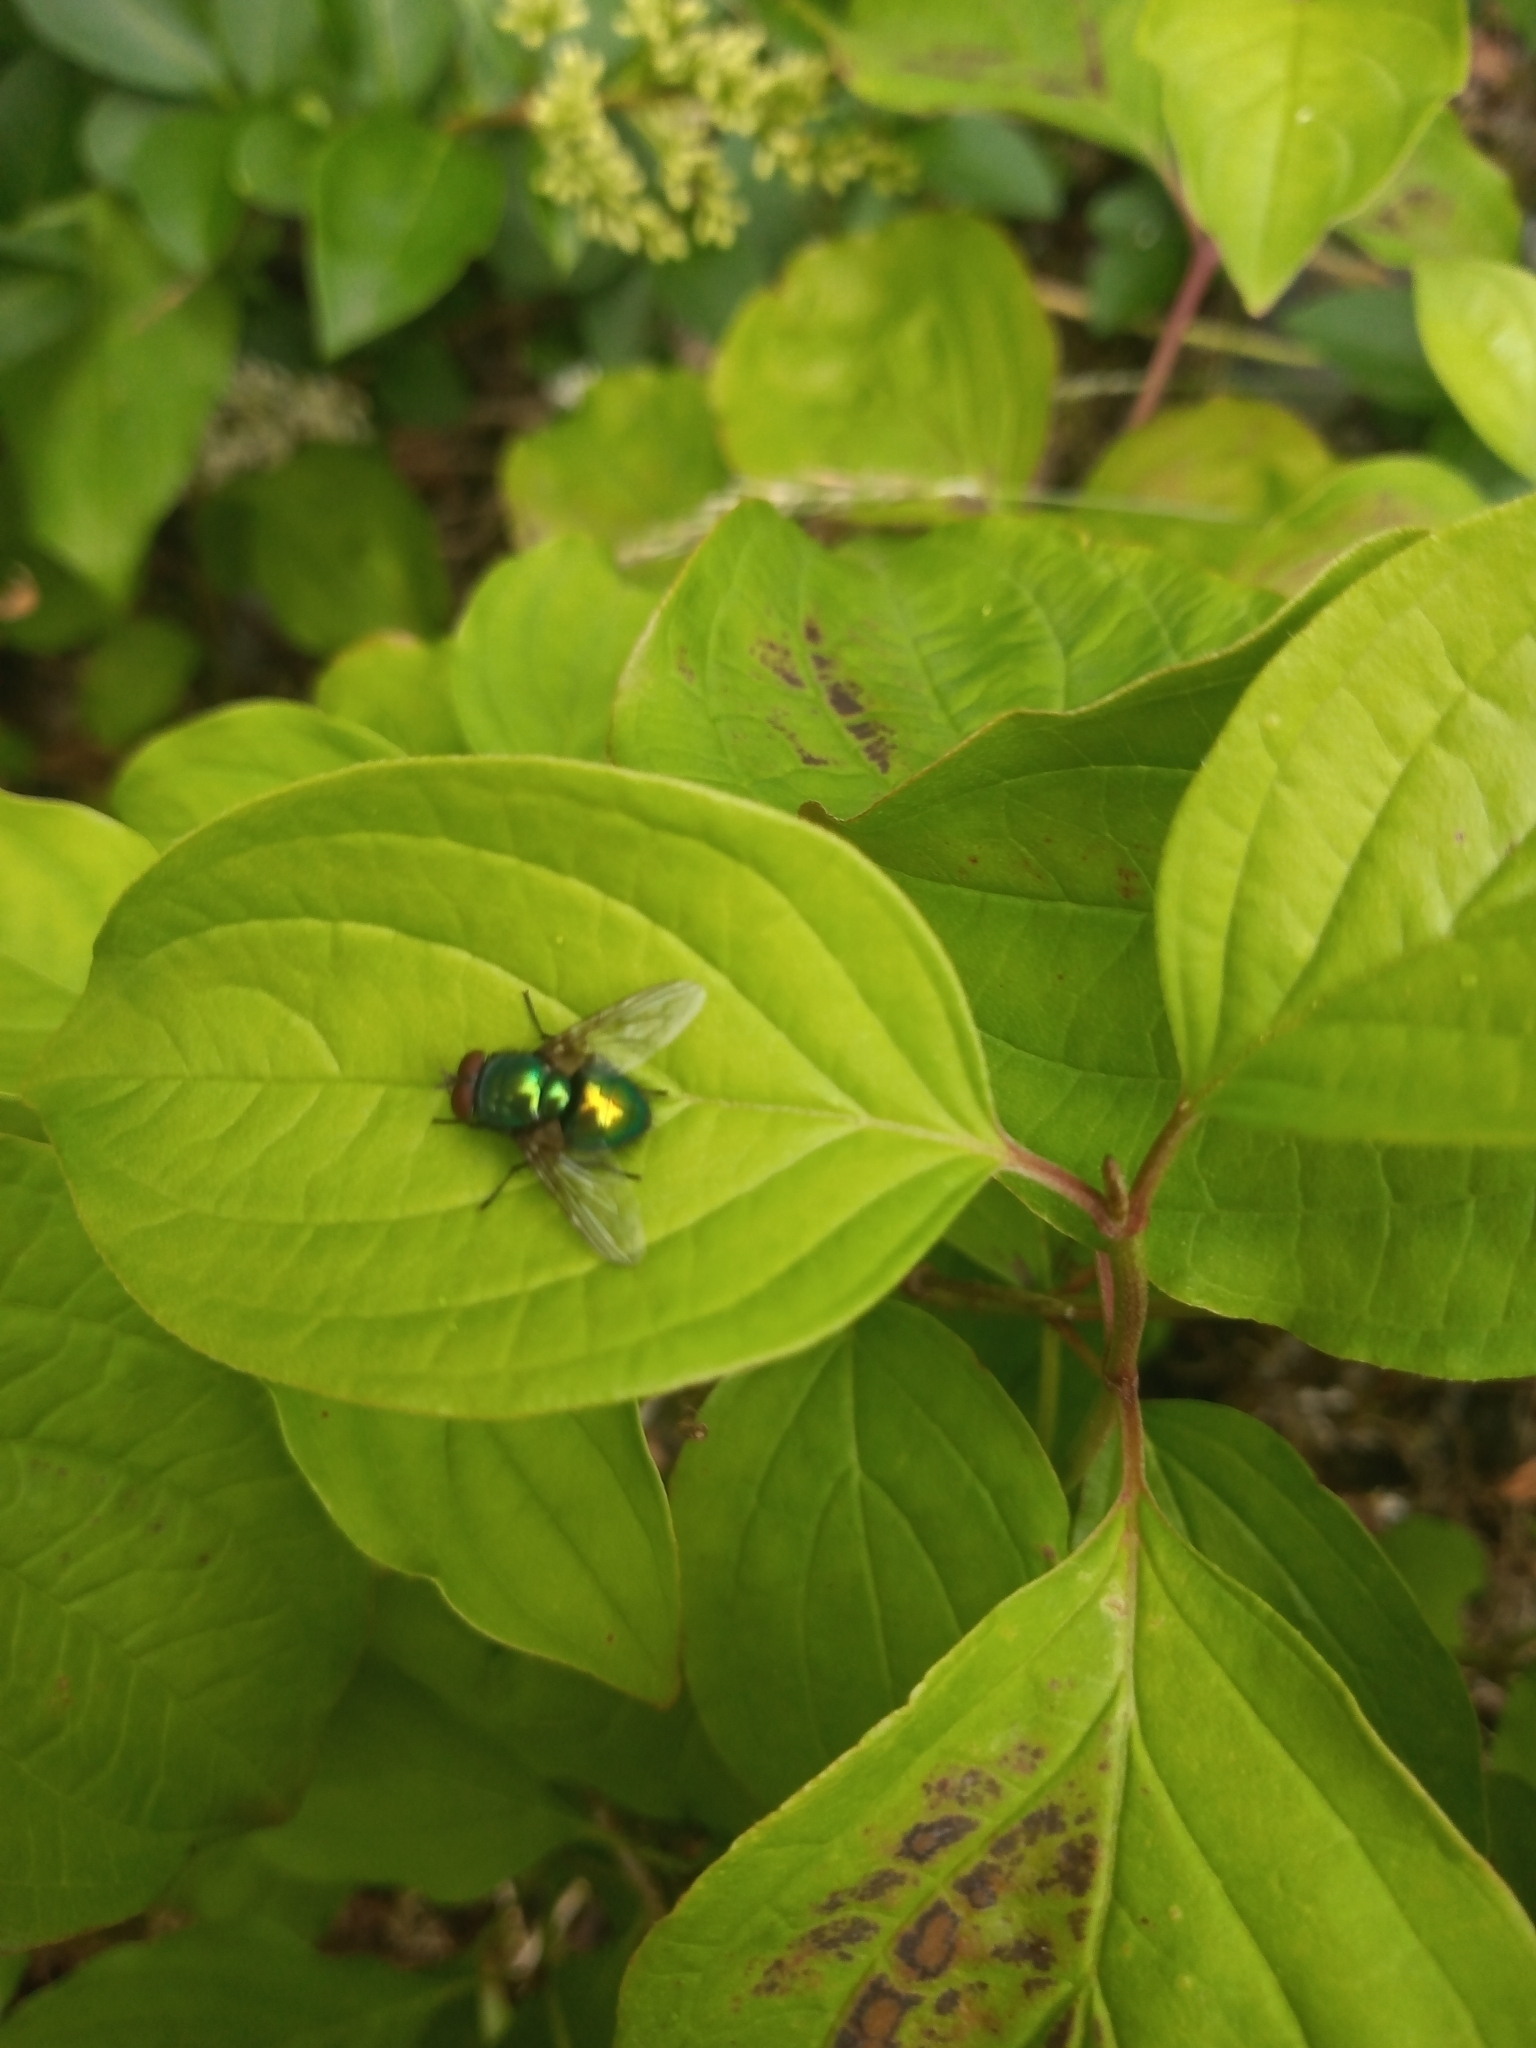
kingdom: Animalia
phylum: Arthropoda
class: Insecta
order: Diptera
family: Calliphoridae
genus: Lucilia
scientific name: Lucilia
